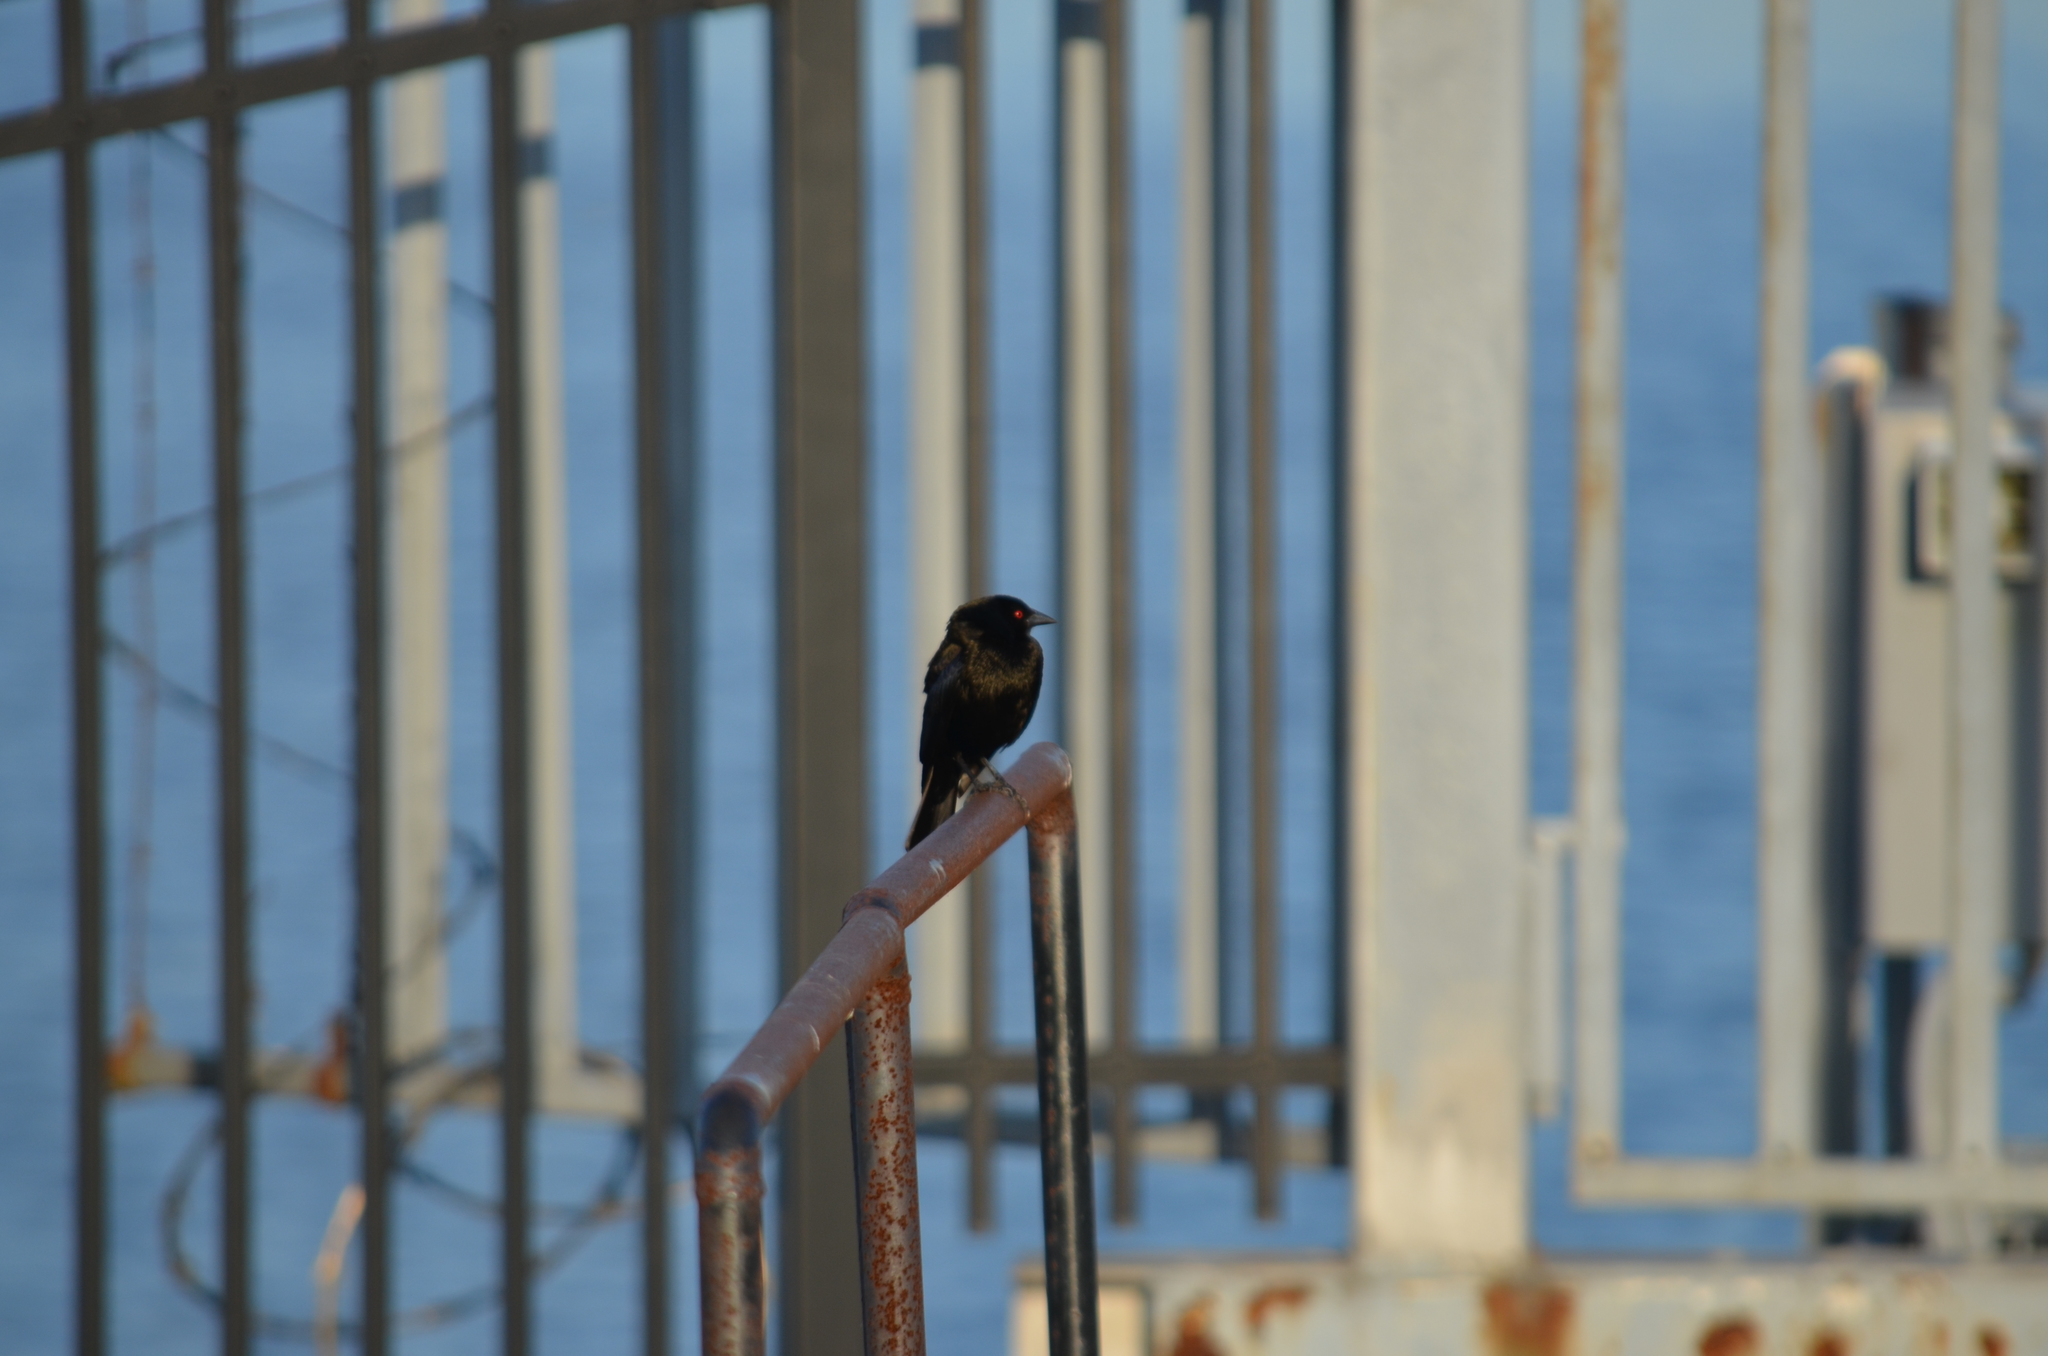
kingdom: Animalia
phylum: Chordata
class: Aves
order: Passeriformes
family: Icteridae
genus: Molothrus
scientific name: Molothrus aeneus
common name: Bronzed cowbird
